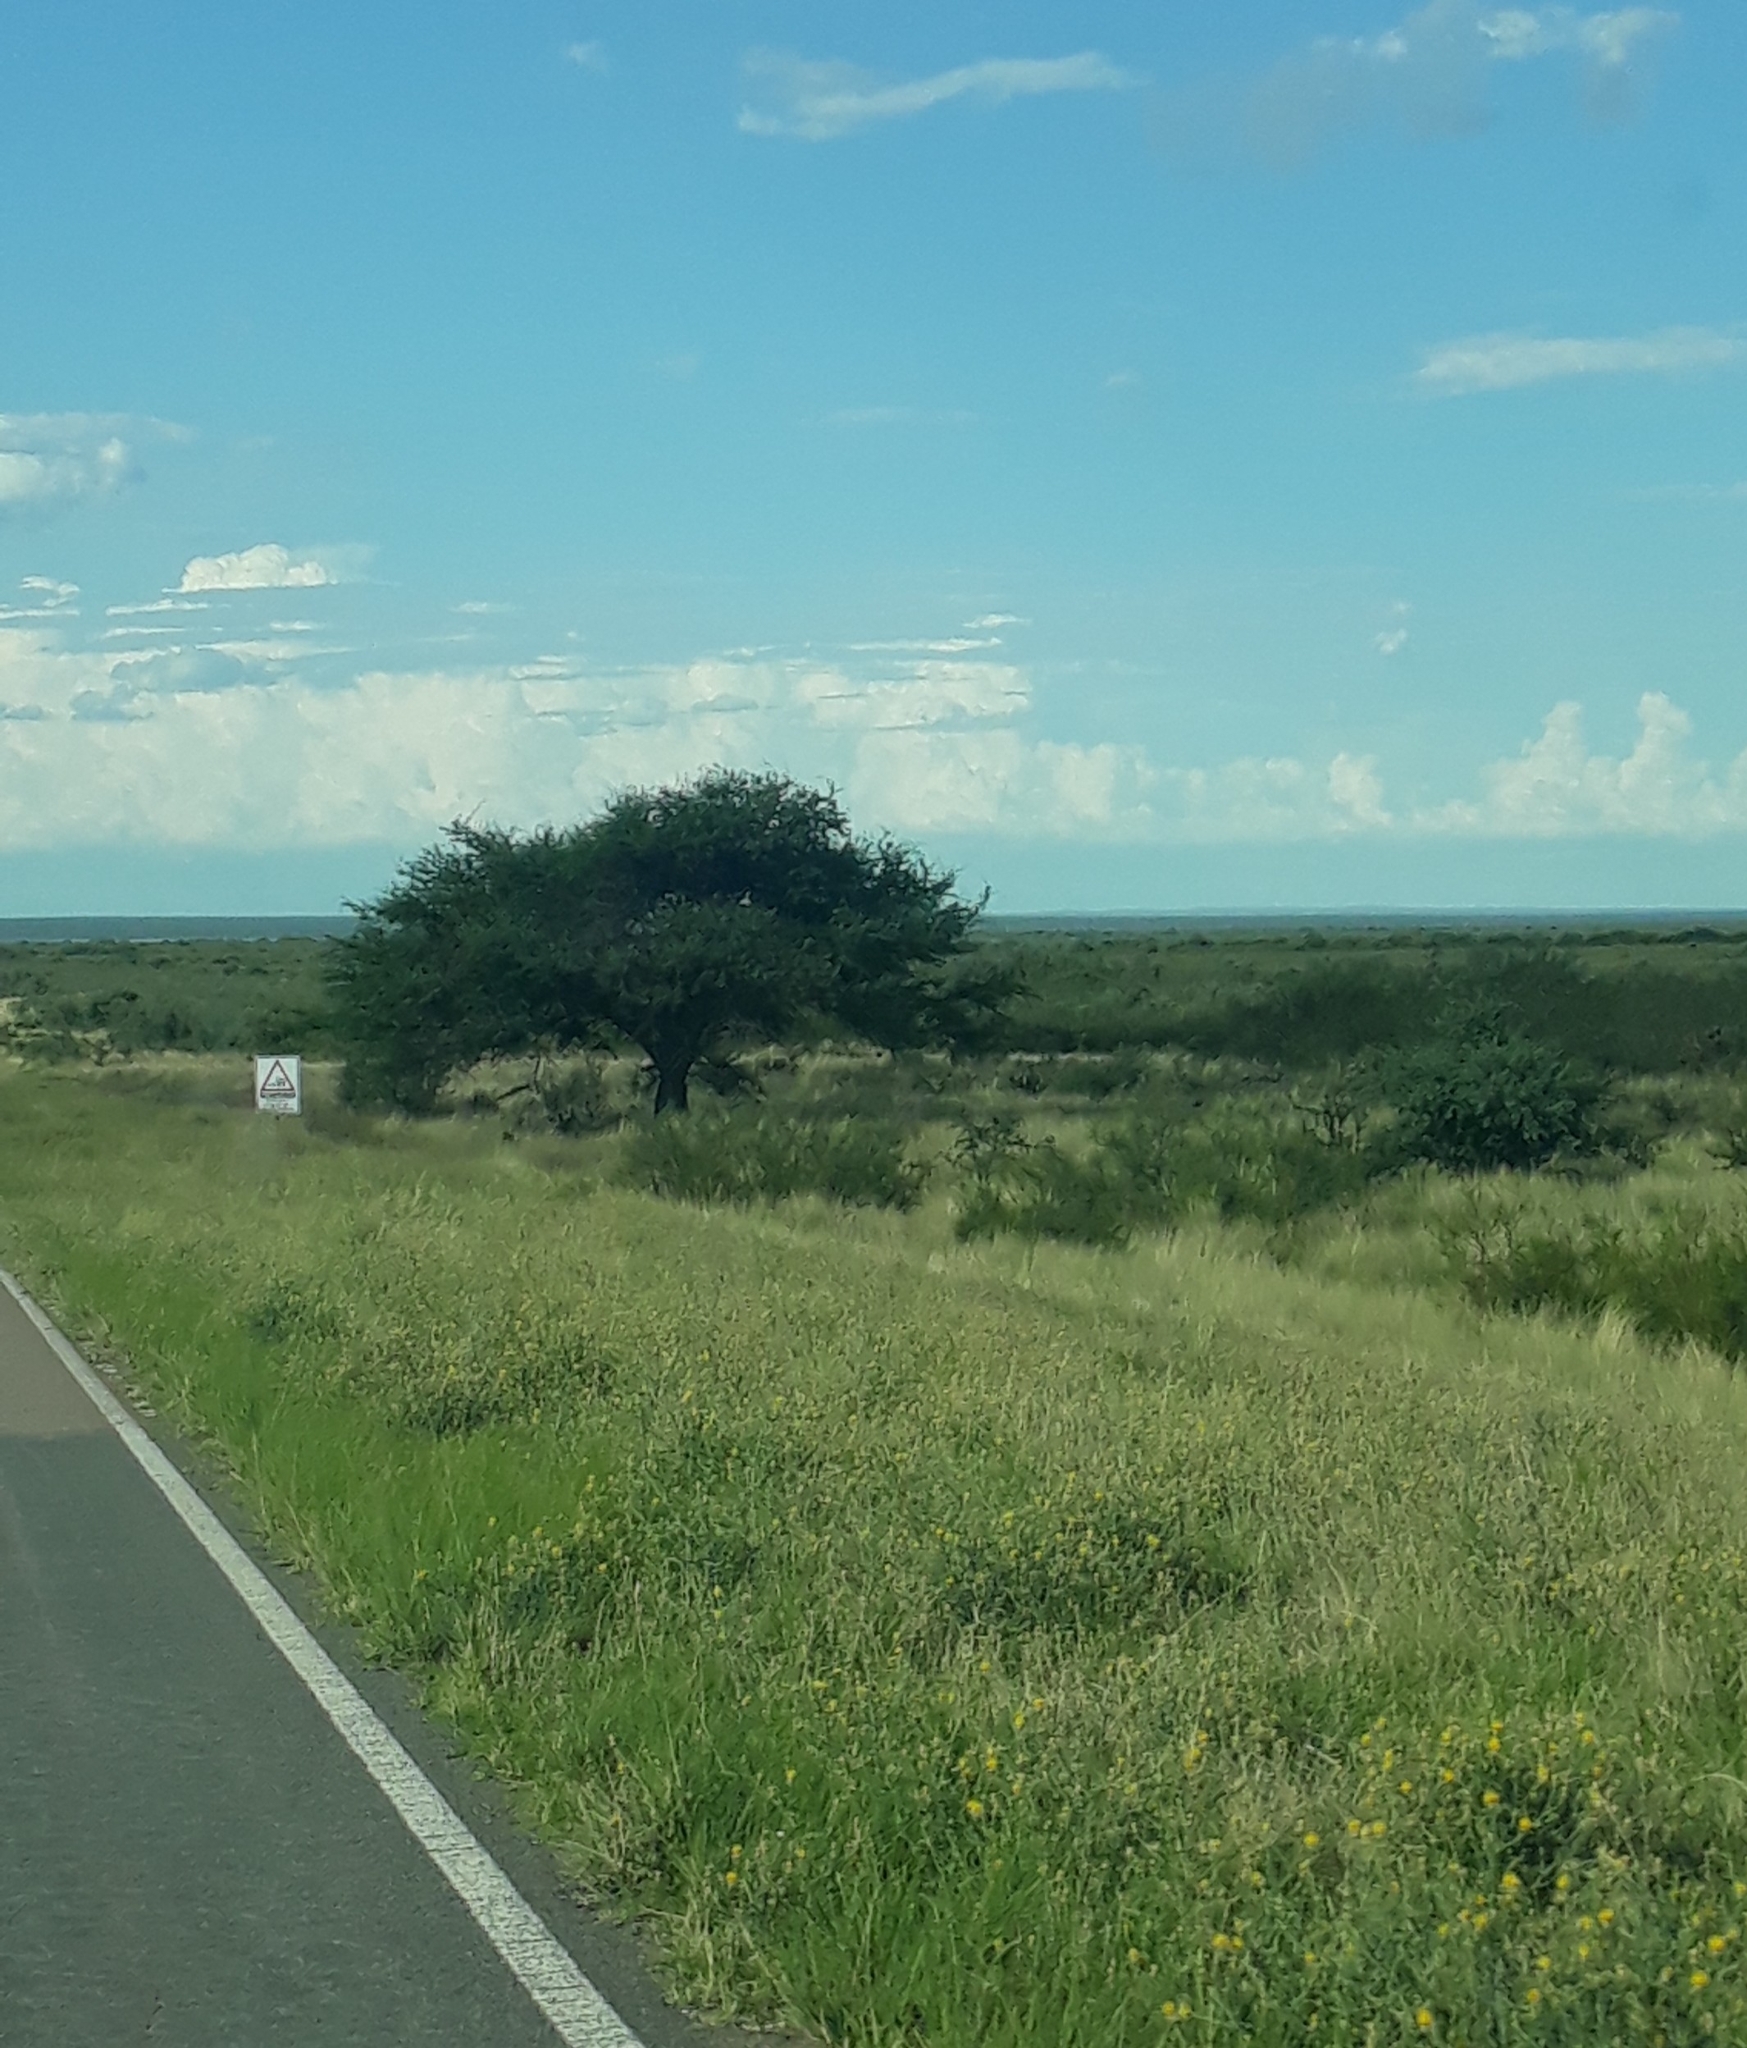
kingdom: Plantae
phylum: Tracheophyta
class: Magnoliopsida
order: Fabales
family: Fabaceae
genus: Prosopis
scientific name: Prosopis caldenia
